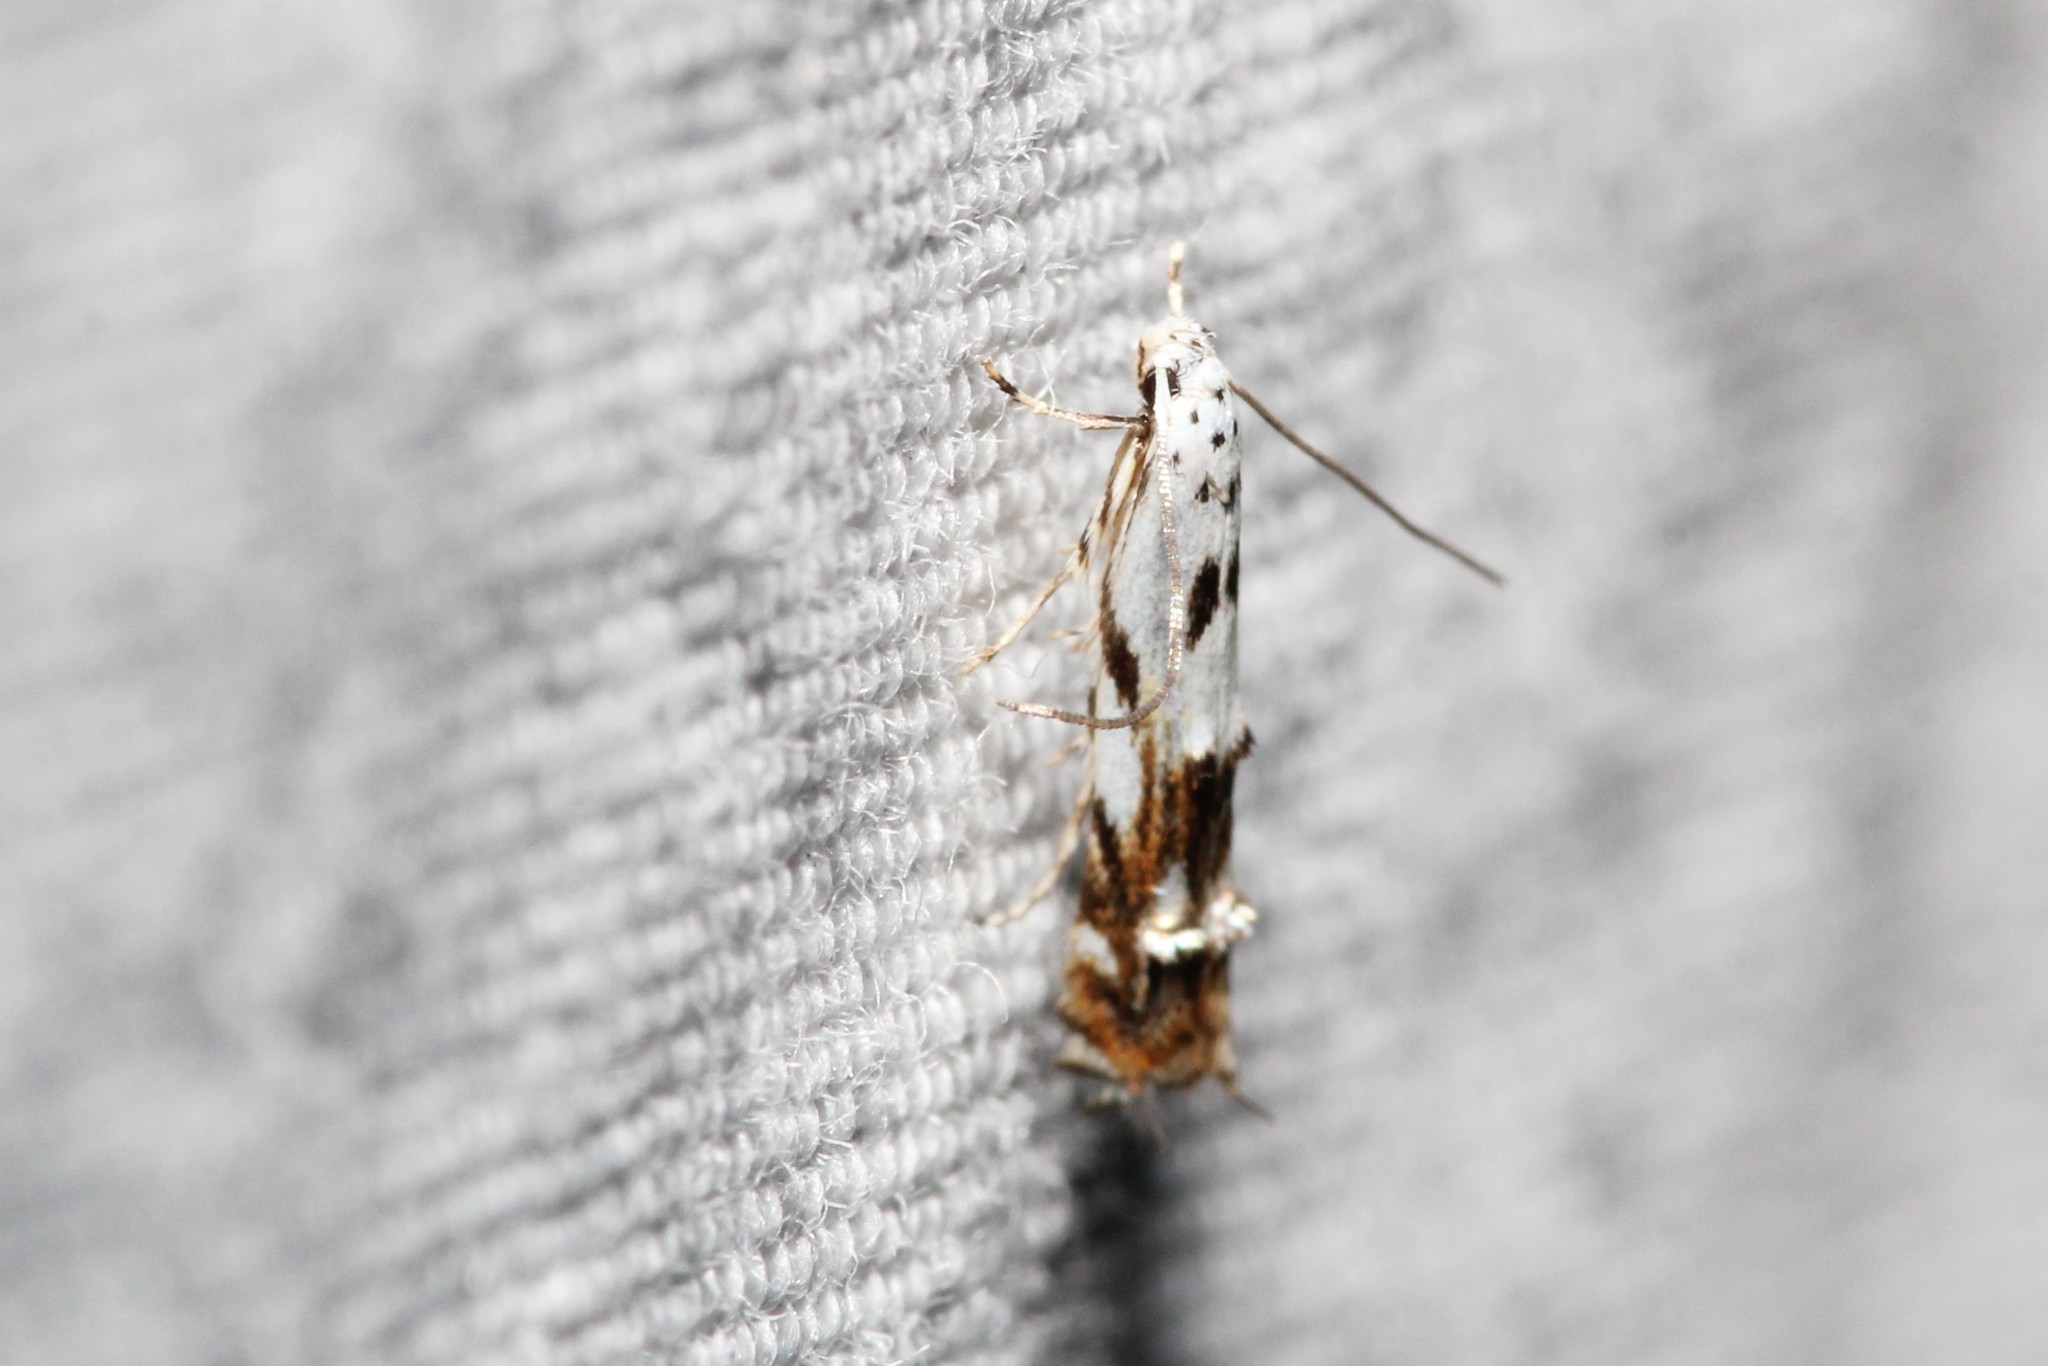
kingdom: Animalia
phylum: Arthropoda
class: Insecta
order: Lepidoptera
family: Momphidae
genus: Mompha
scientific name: Mompha eloisella
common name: Red-streaked mompha moth
